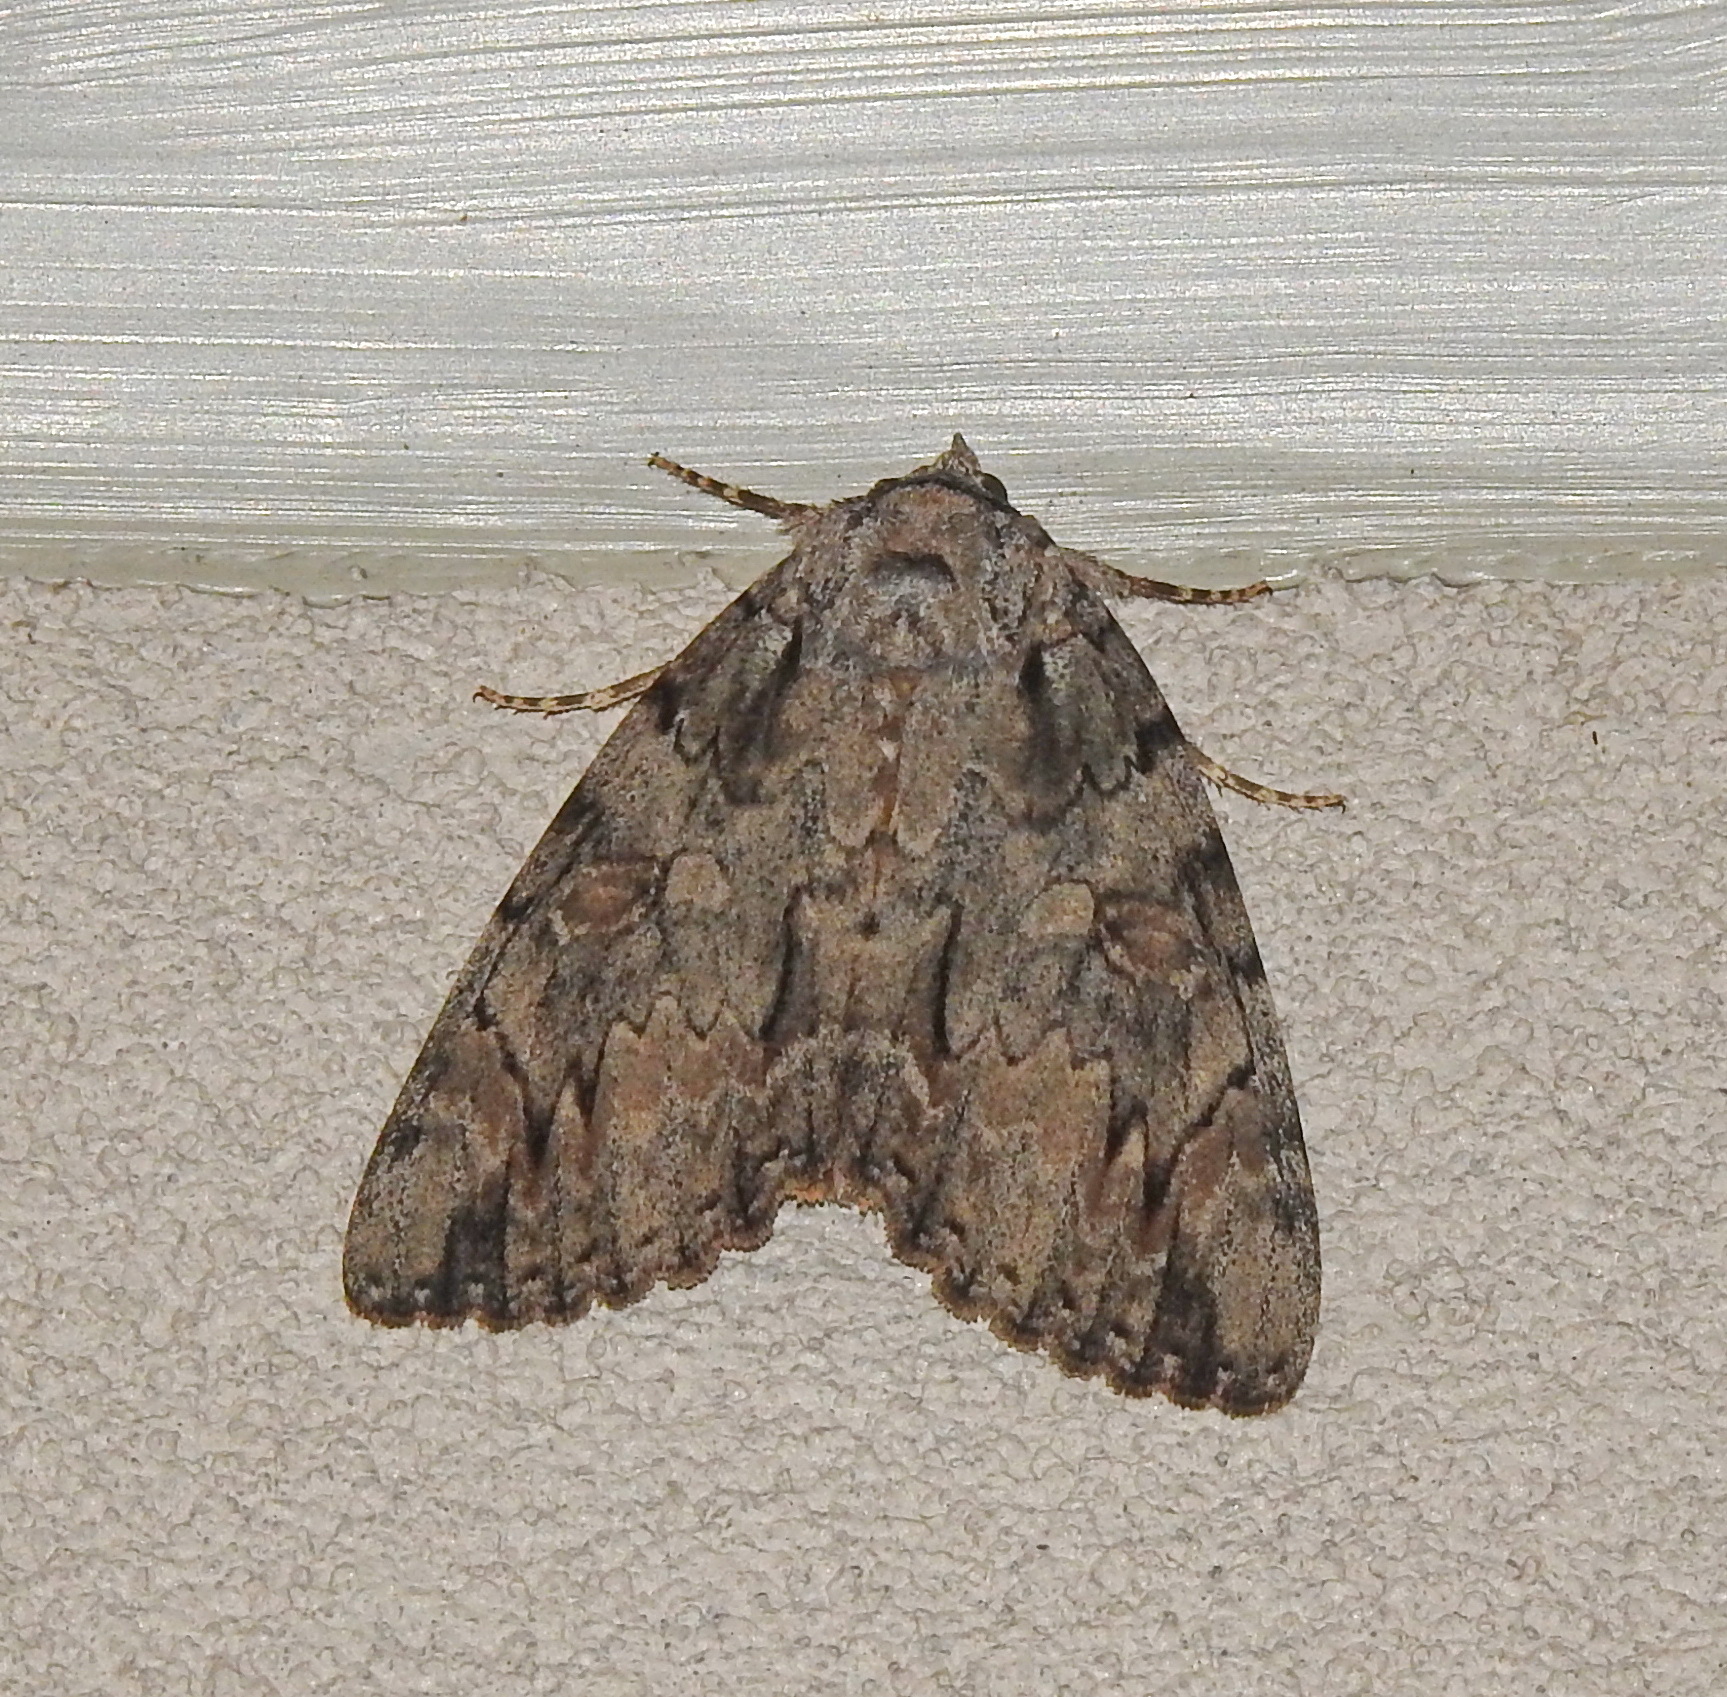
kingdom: Animalia
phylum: Arthropoda
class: Insecta
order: Lepidoptera
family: Erebidae
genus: Catocala
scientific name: Catocala neogama
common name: Bride underwing
